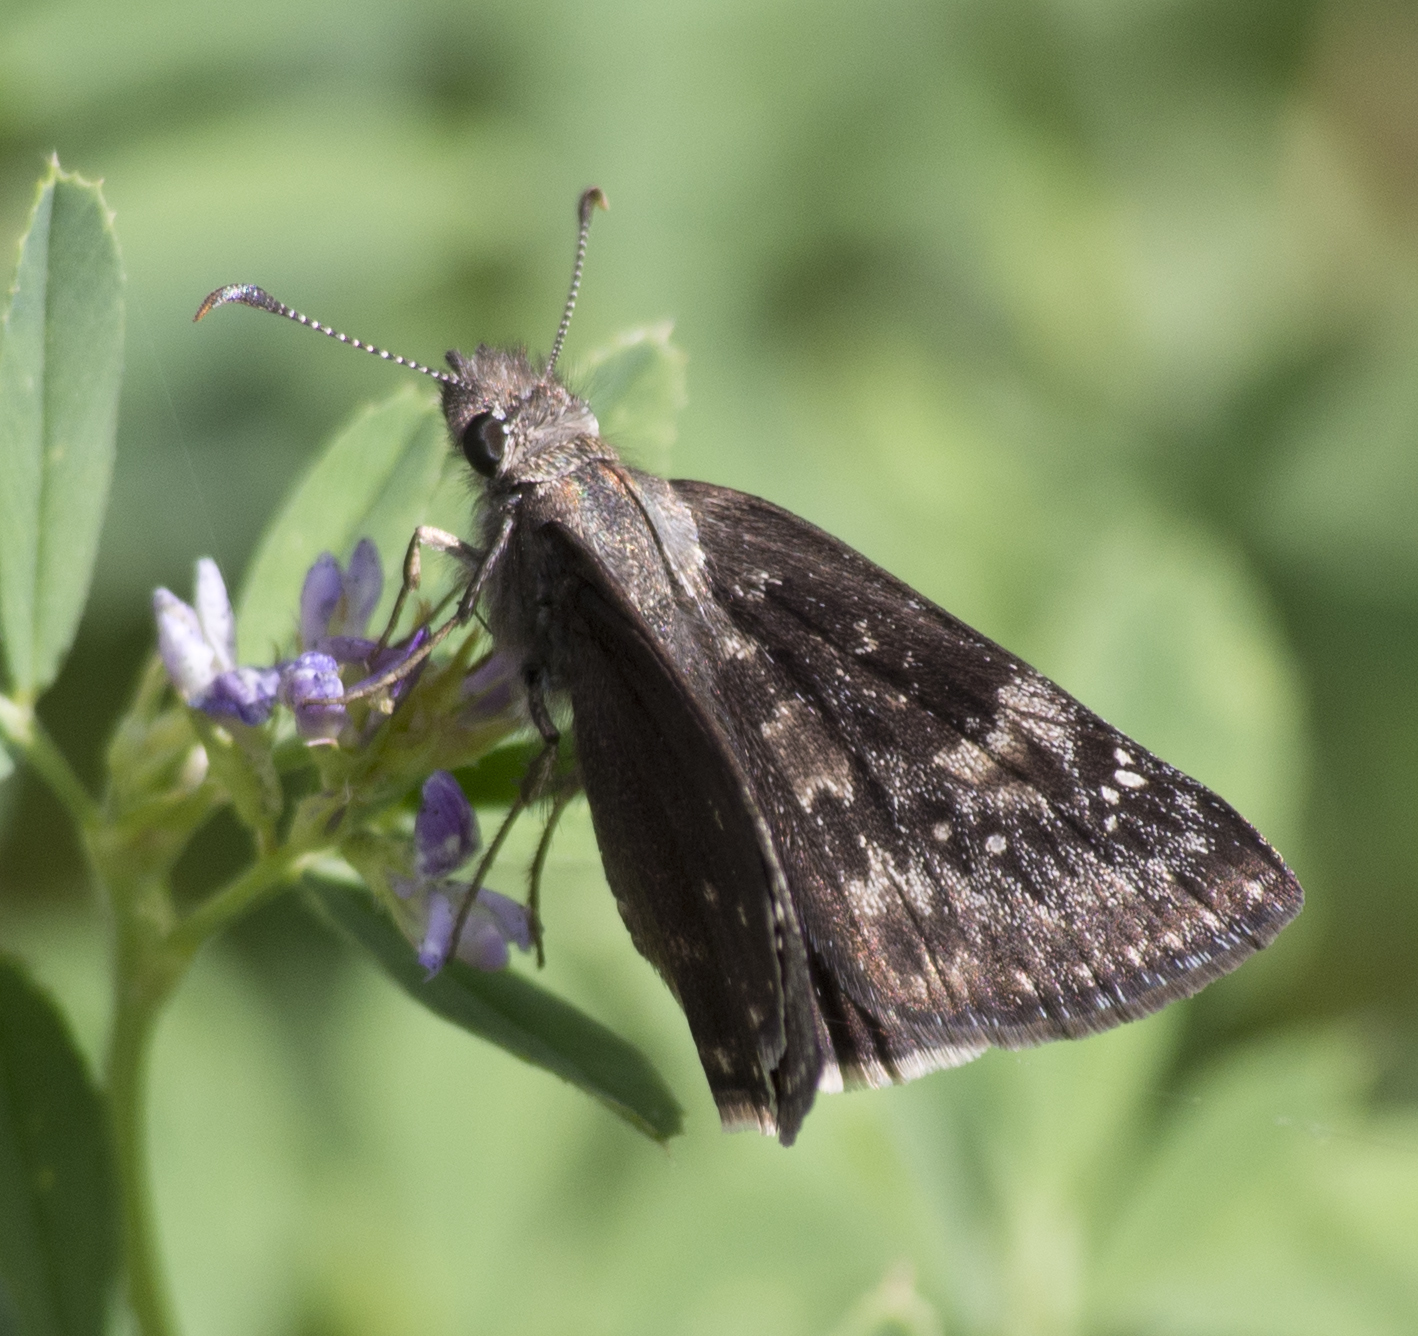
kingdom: Animalia
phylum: Arthropoda
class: Insecta
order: Lepidoptera
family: Hesperiidae
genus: Erynnis
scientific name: Erynnis afranius
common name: Afranius duskywing
